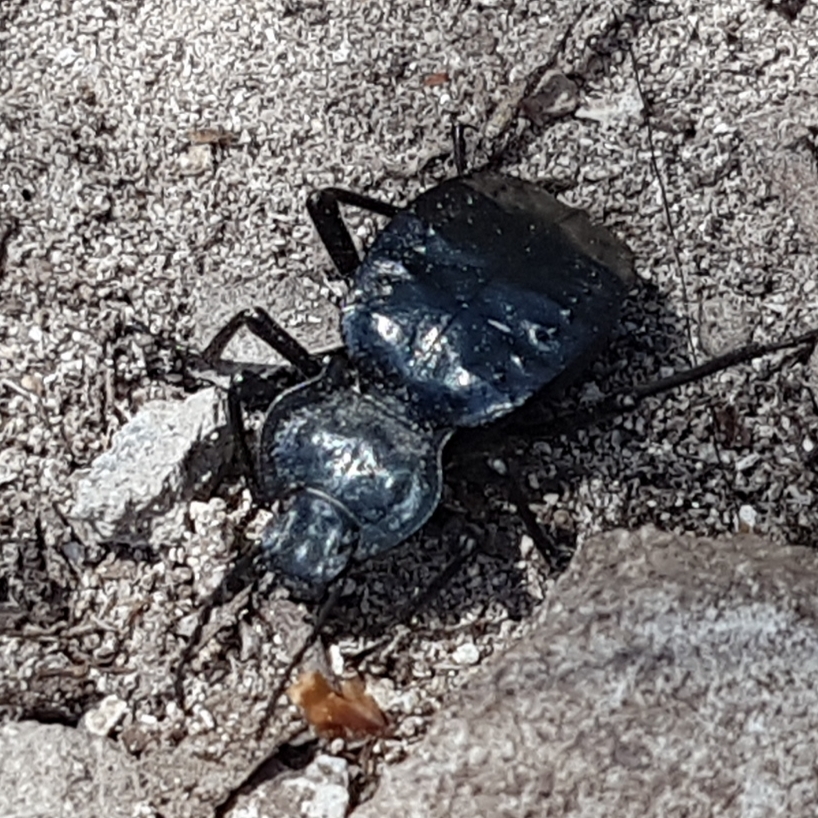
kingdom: Animalia
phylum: Arthropoda
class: Insecta
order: Coleoptera
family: Tenebrionidae
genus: Akis
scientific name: Akis bacarozzo
